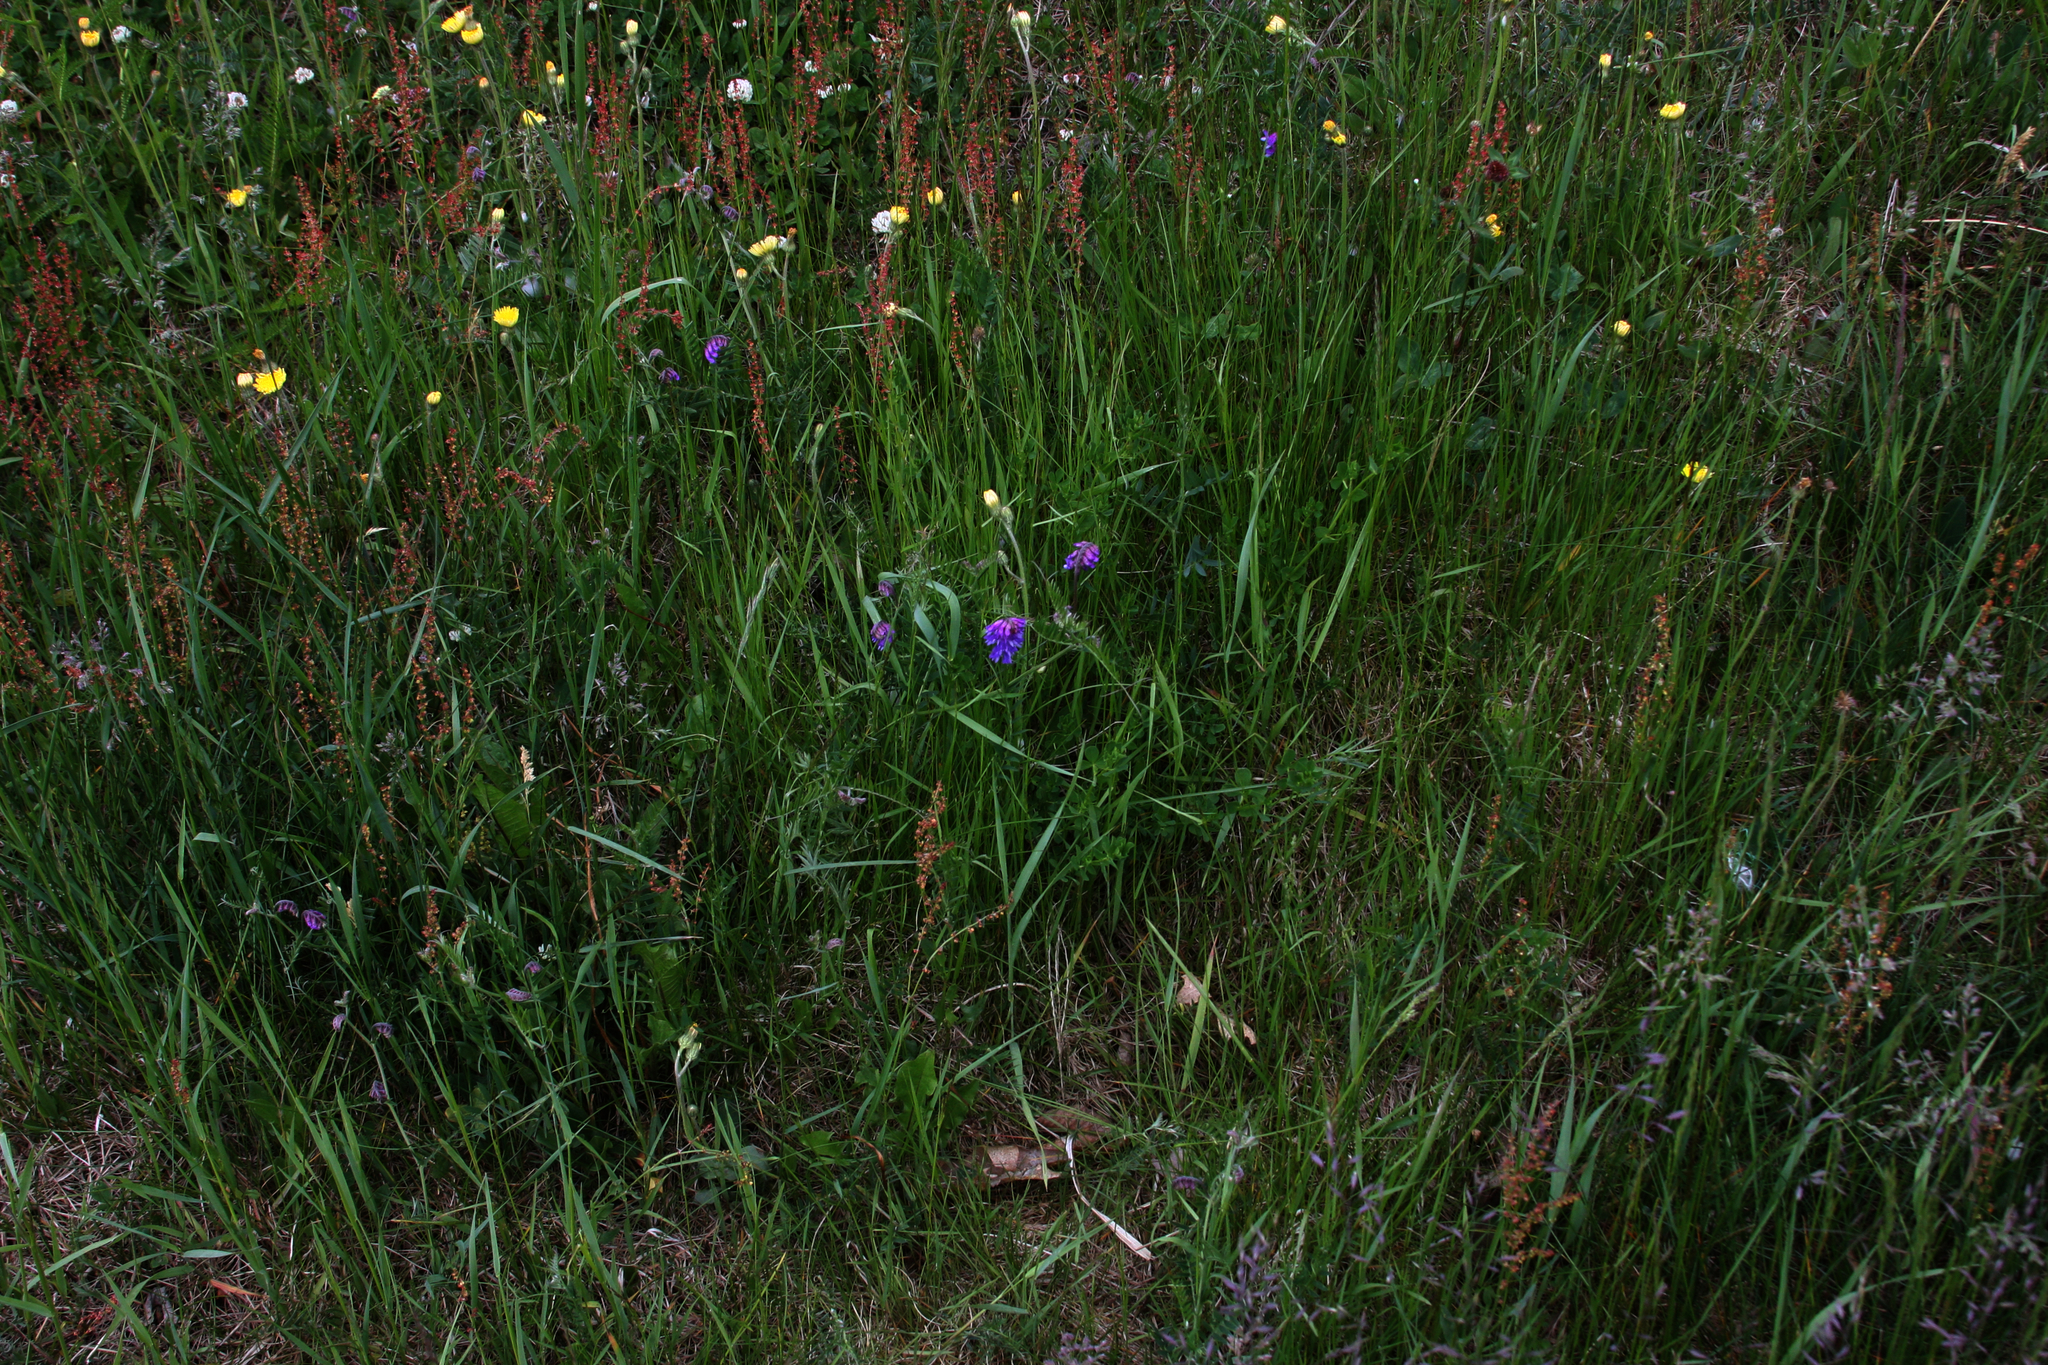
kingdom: Plantae
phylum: Tracheophyta
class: Magnoliopsida
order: Fabales
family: Fabaceae
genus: Vicia
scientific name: Vicia cracca
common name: Bird vetch
